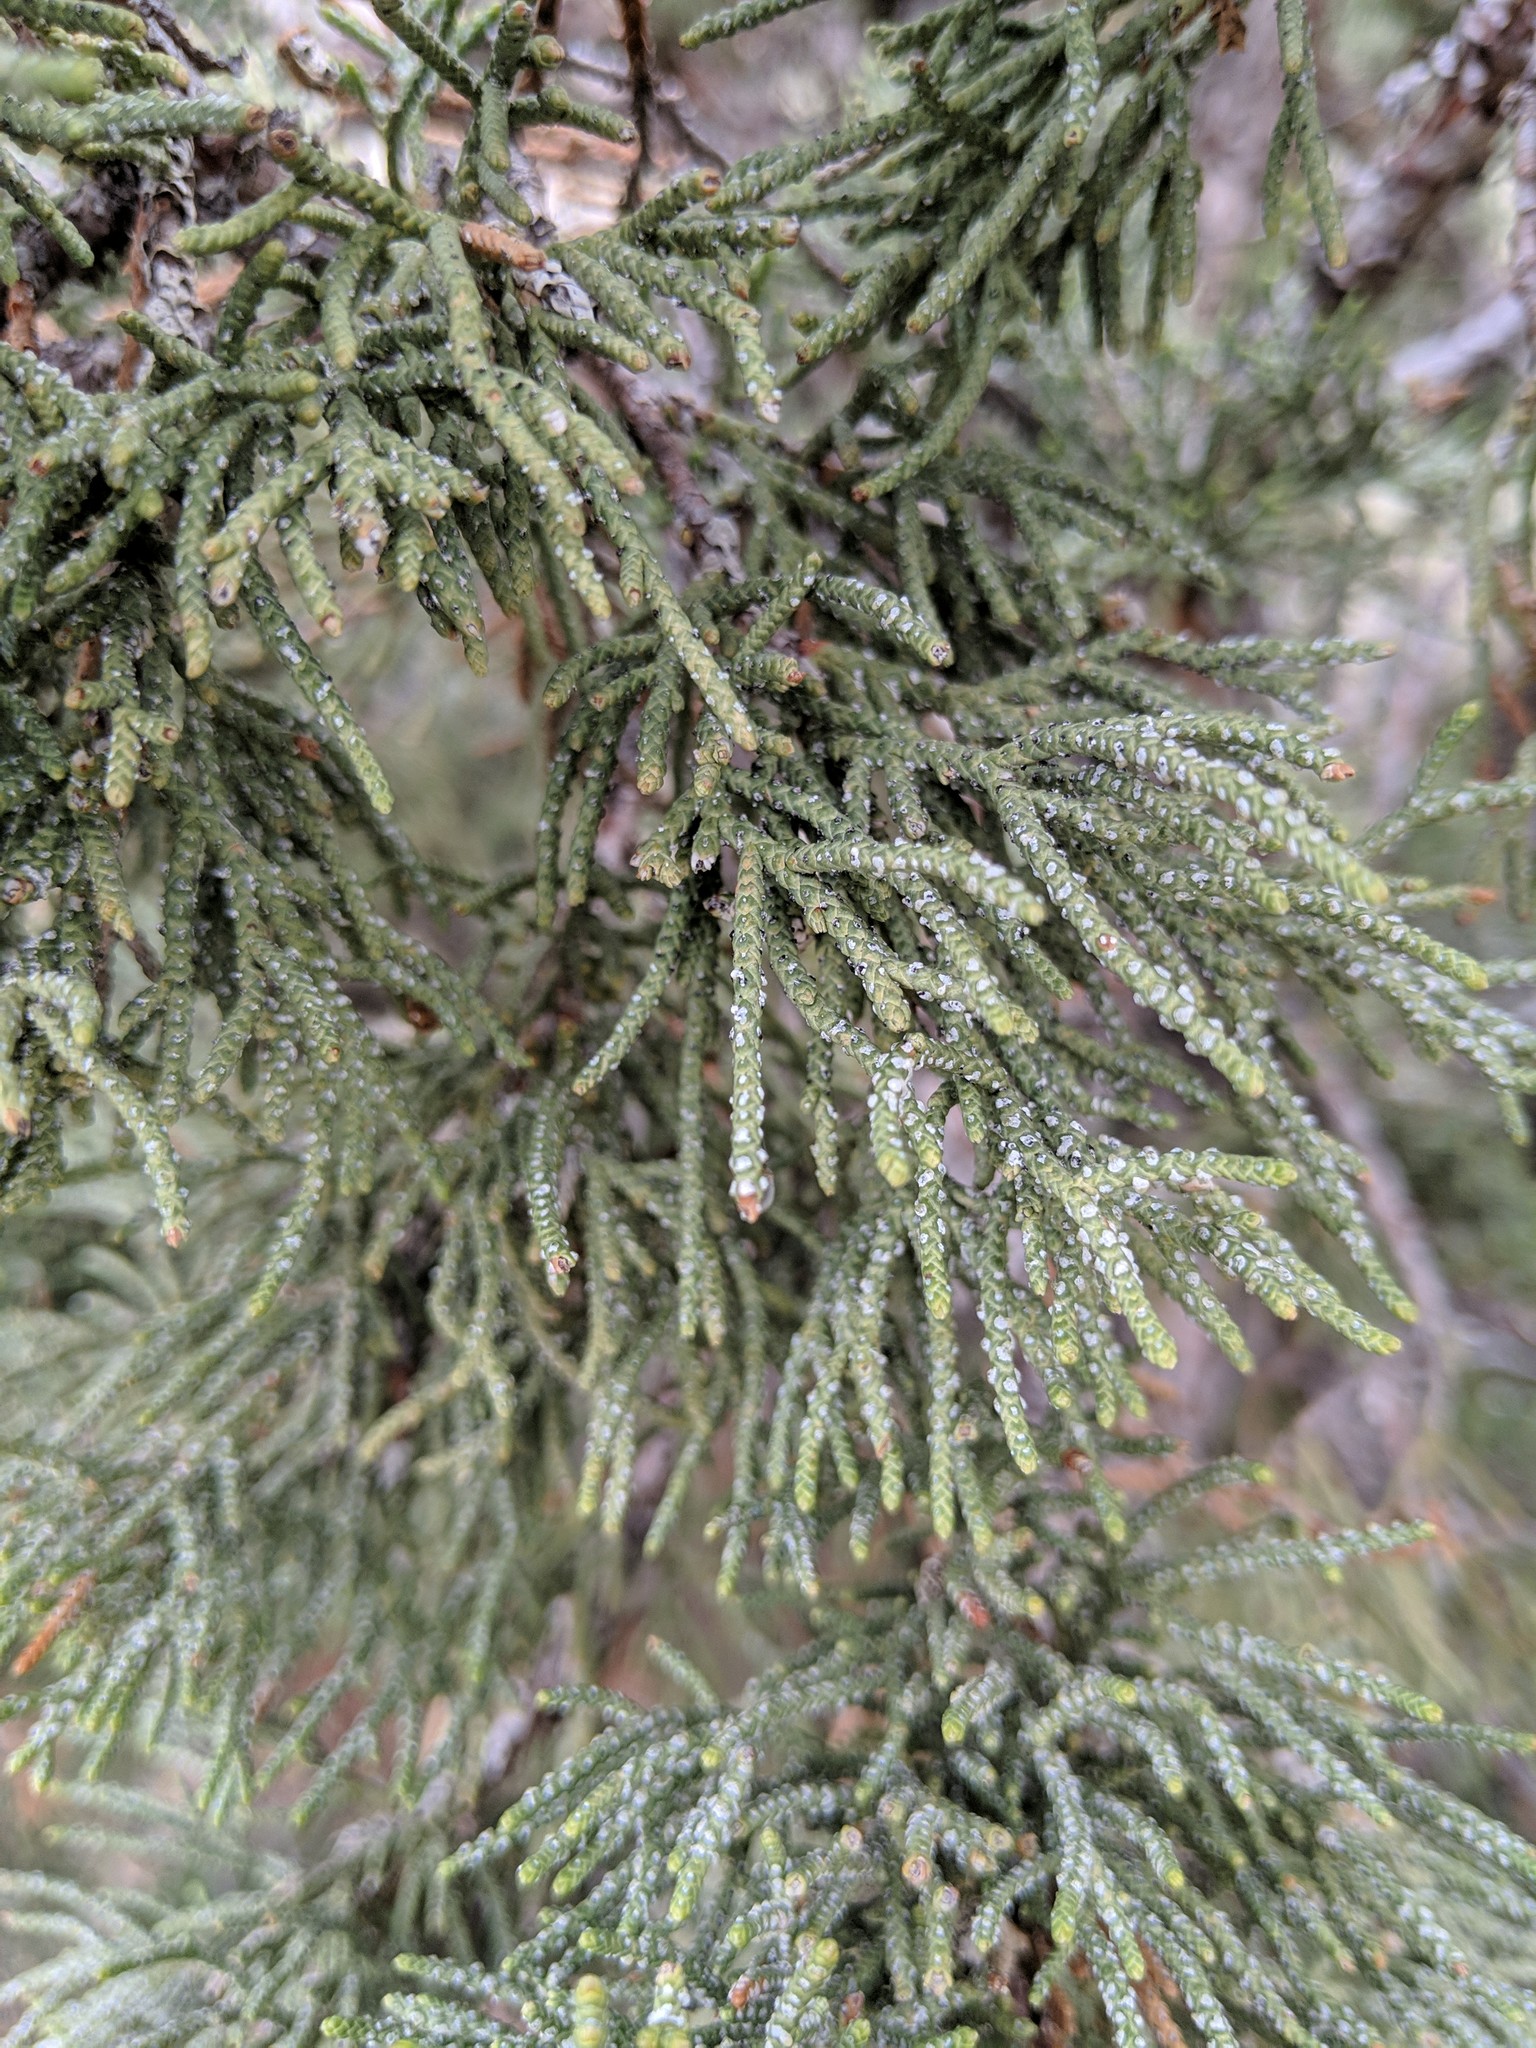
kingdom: Plantae
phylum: Tracheophyta
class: Pinopsida
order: Pinales
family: Cupressaceae
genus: Juniperus
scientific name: Juniperus occidentalis
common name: Western juniper
